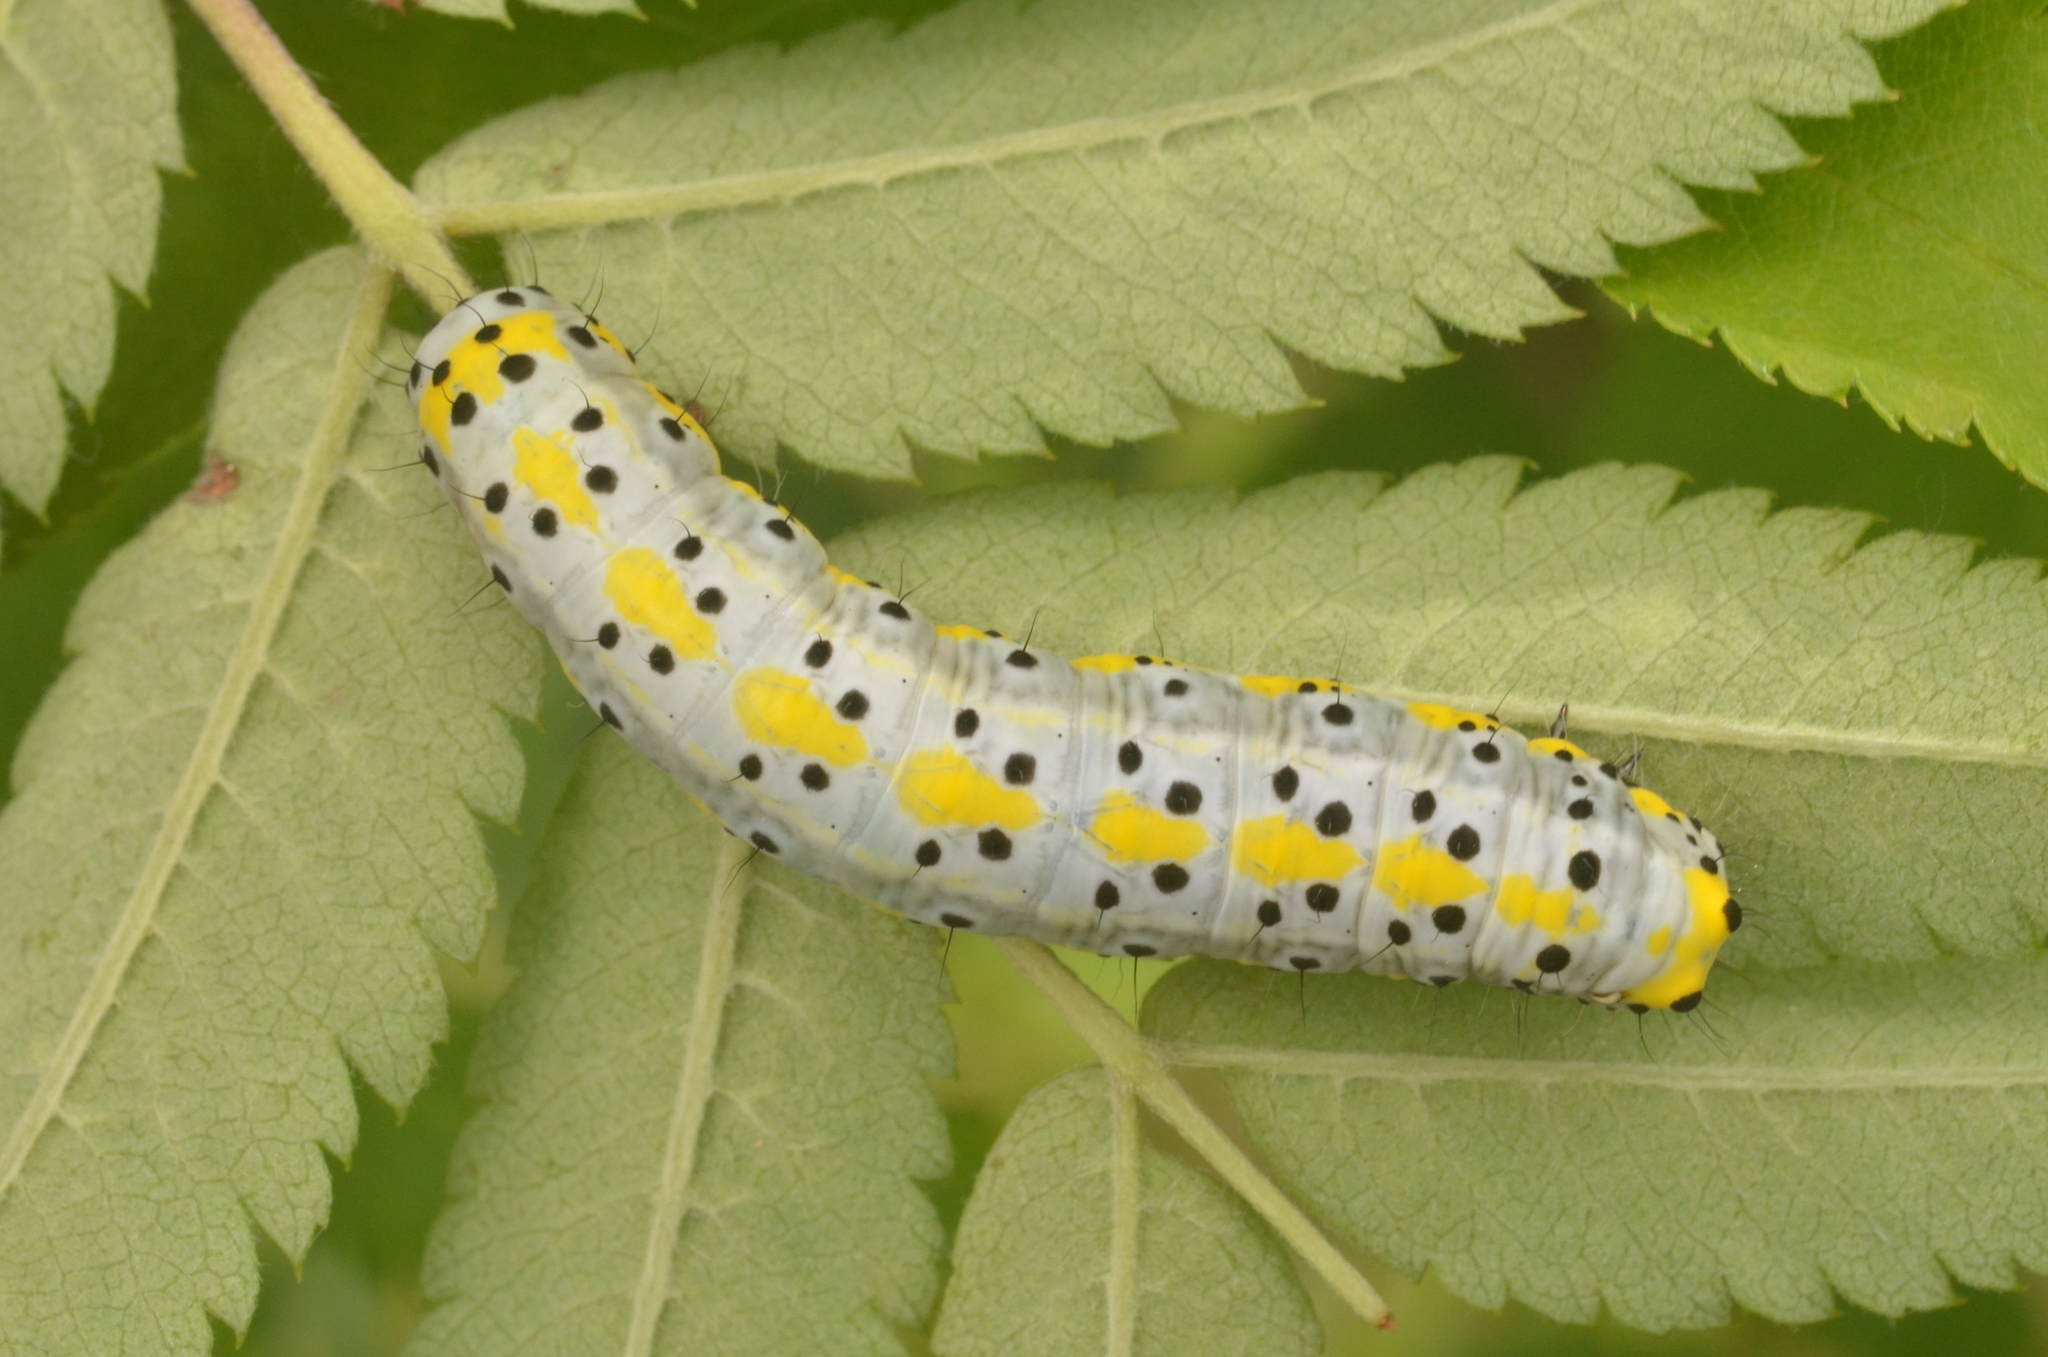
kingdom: Animalia
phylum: Arthropoda
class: Insecta
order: Lepidoptera
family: Noctuidae
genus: Diloba
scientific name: Diloba caeruleocephala
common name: Figure of eight
